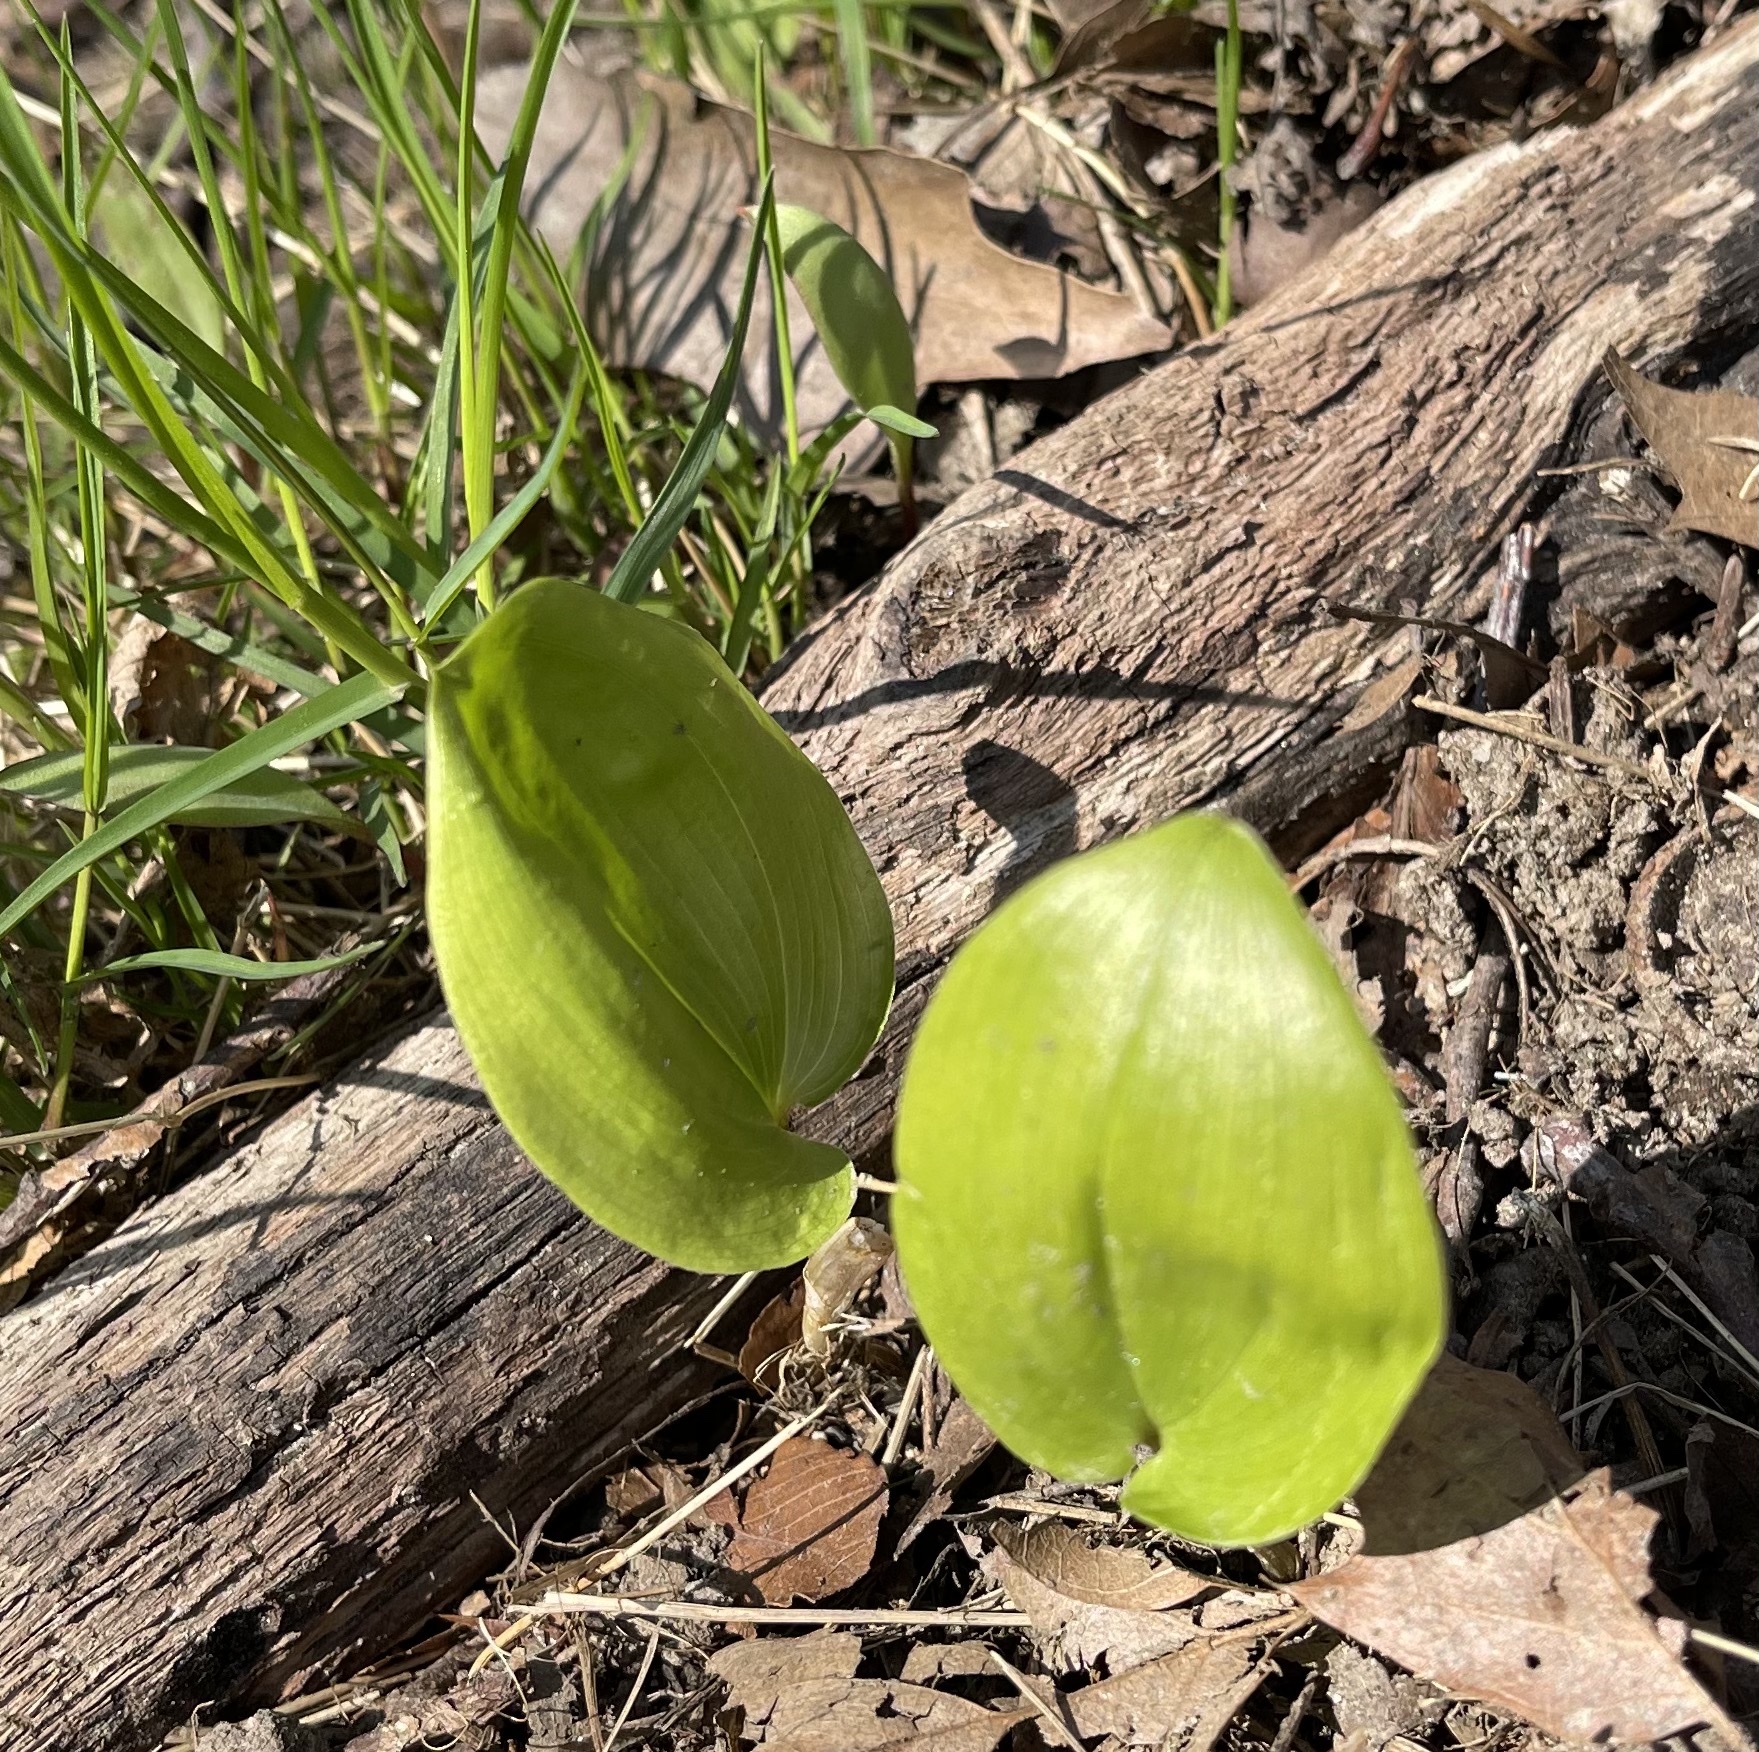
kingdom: Plantae
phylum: Tracheophyta
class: Liliopsida
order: Asparagales
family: Asparagaceae
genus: Maianthemum
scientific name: Maianthemum canadense
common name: False lily-of-the-valley
